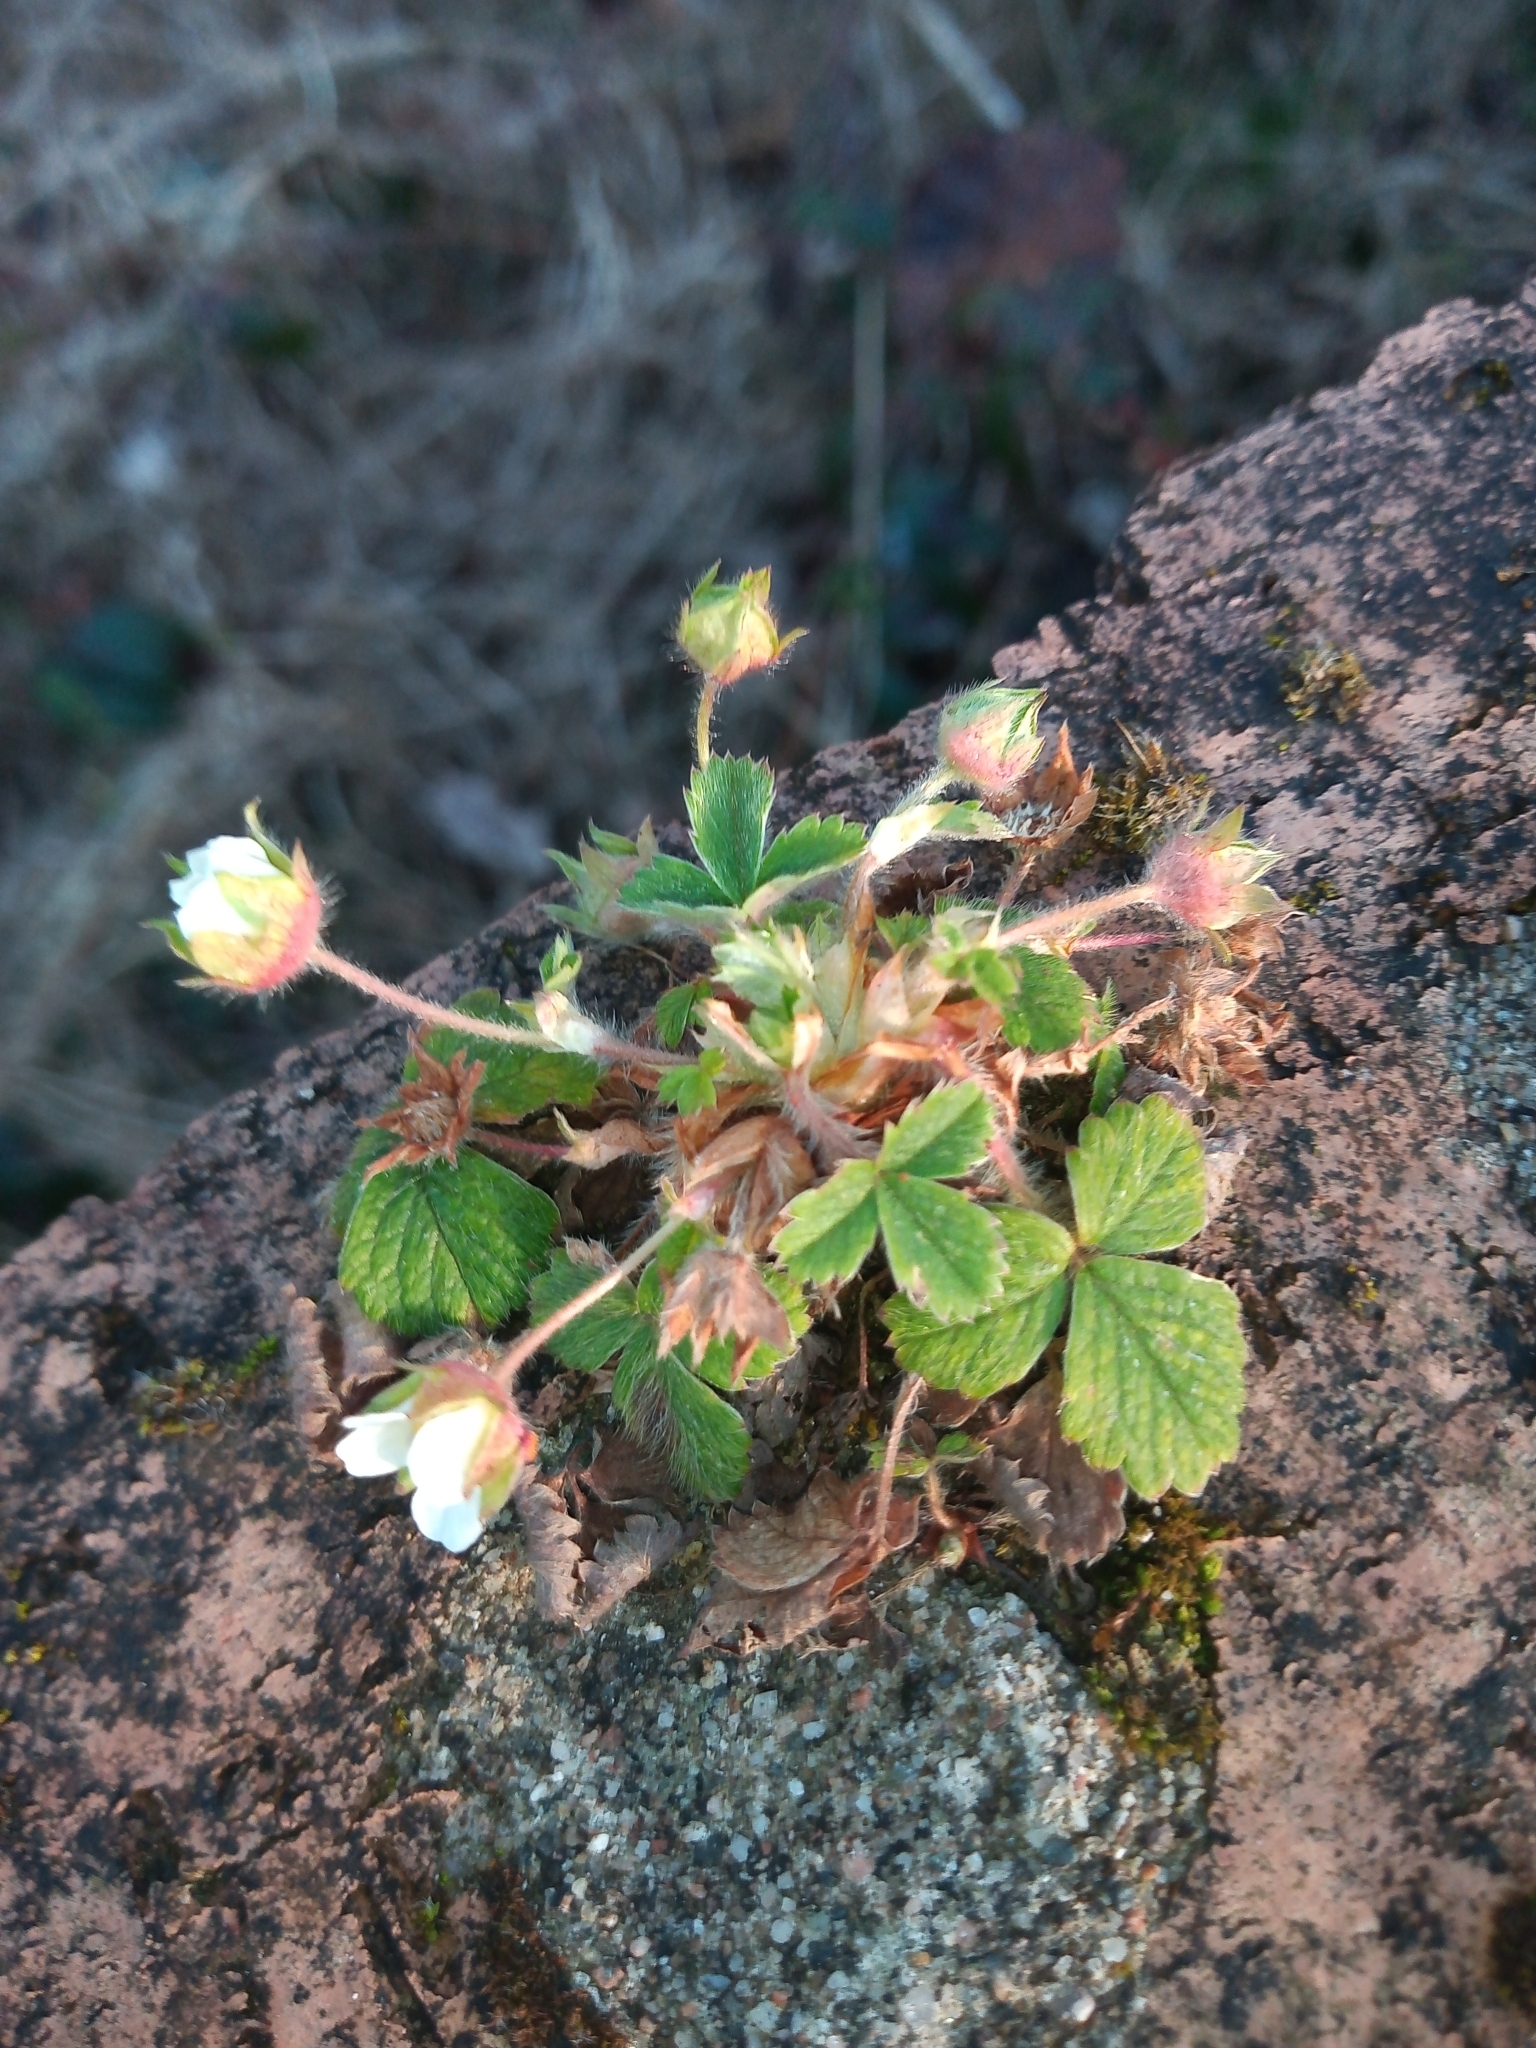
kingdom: Plantae
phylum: Tracheophyta
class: Magnoliopsida
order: Rosales
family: Rosaceae
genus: Potentilla
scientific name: Potentilla sterilis
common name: Barren strawberry
